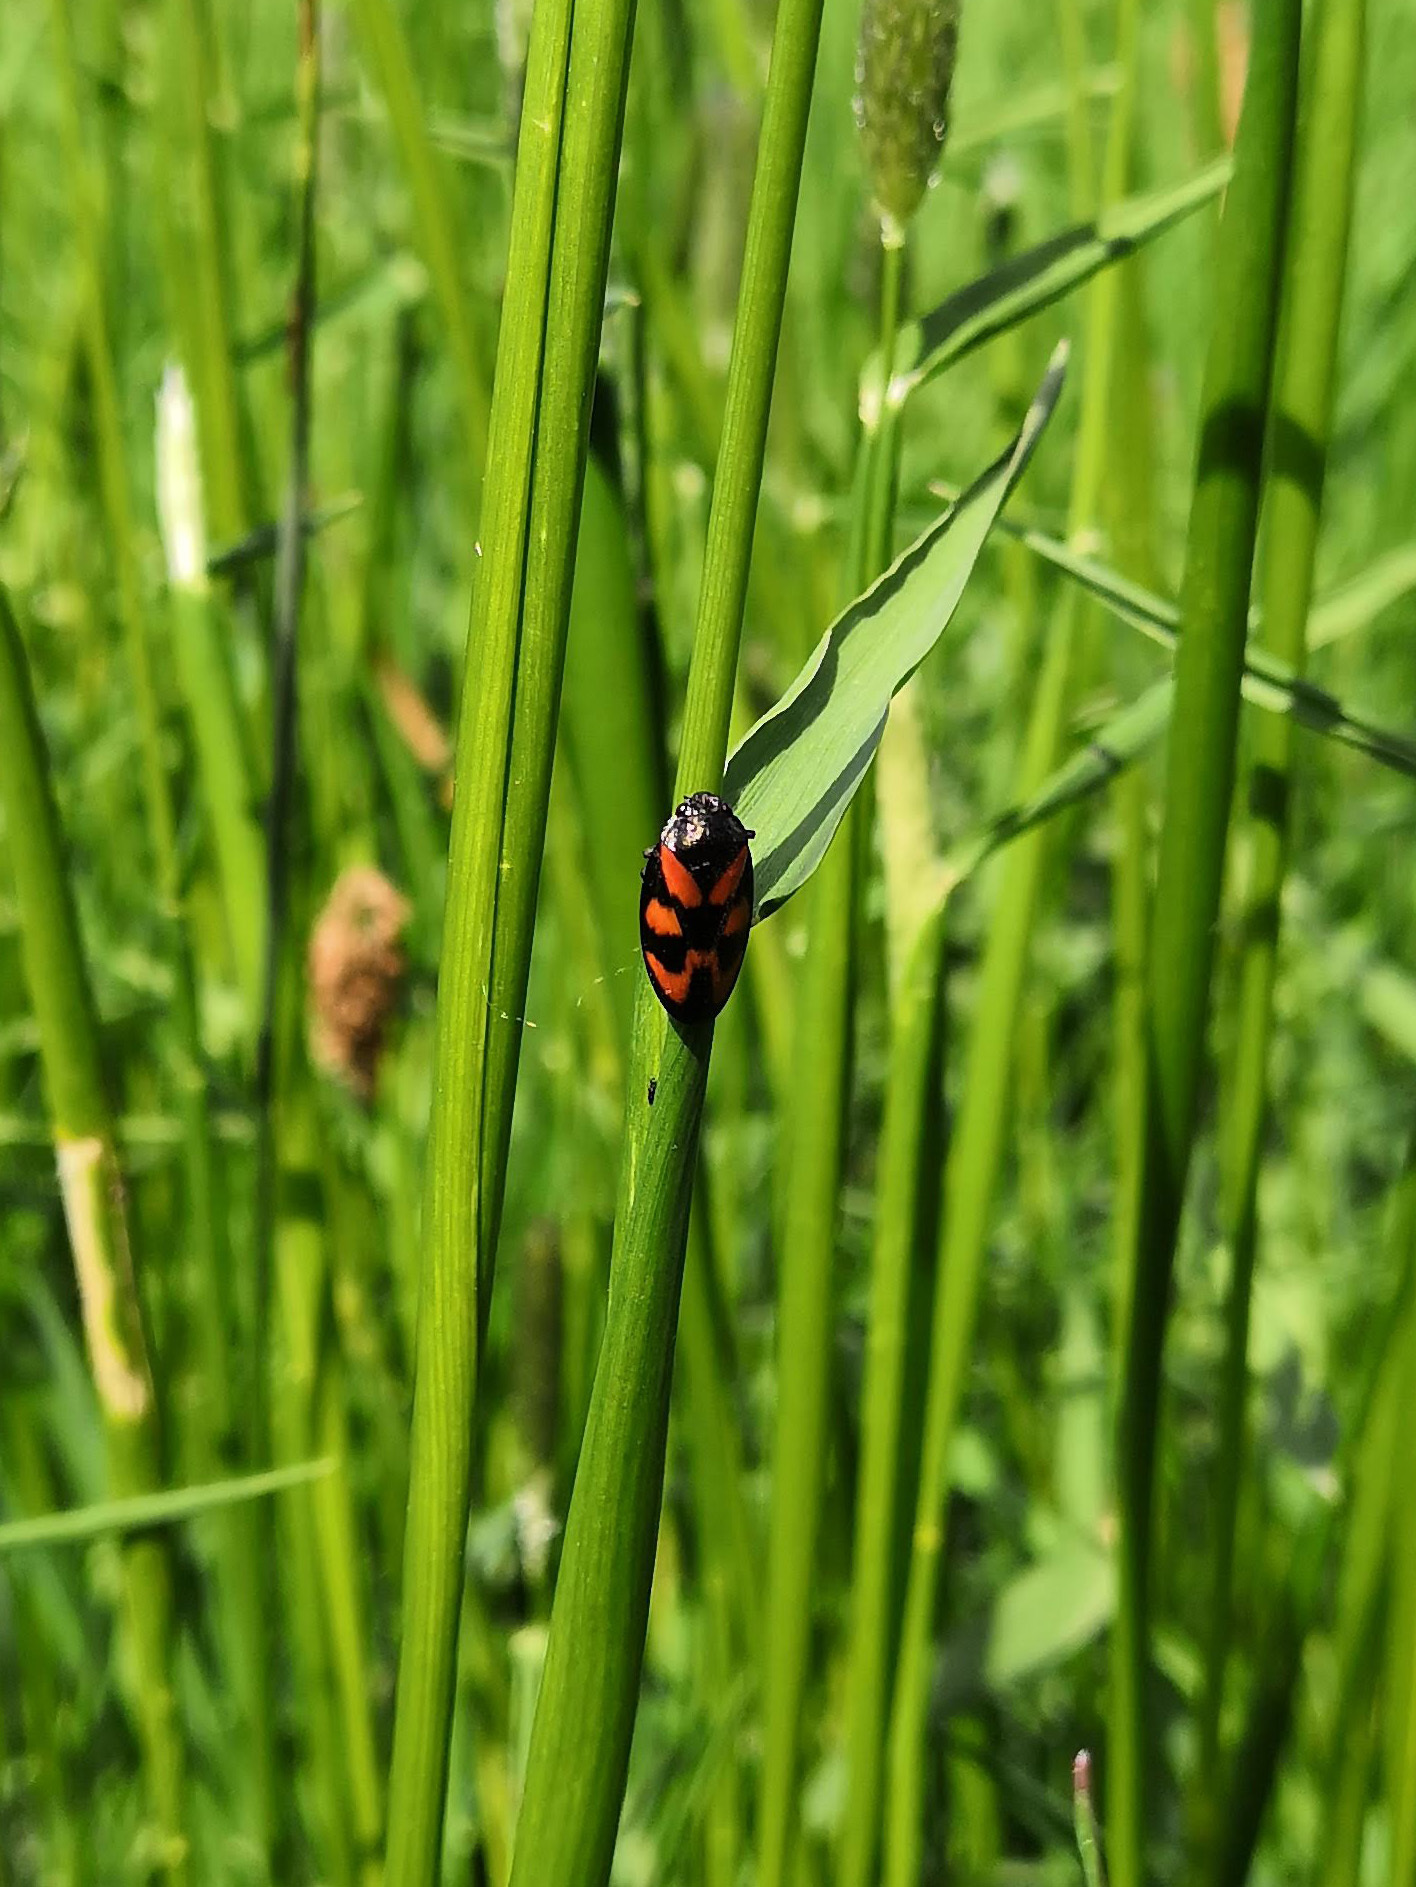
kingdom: Animalia
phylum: Arthropoda
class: Insecta
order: Hemiptera
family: Cercopidae
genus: Cercopis
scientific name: Cercopis vulnerata
